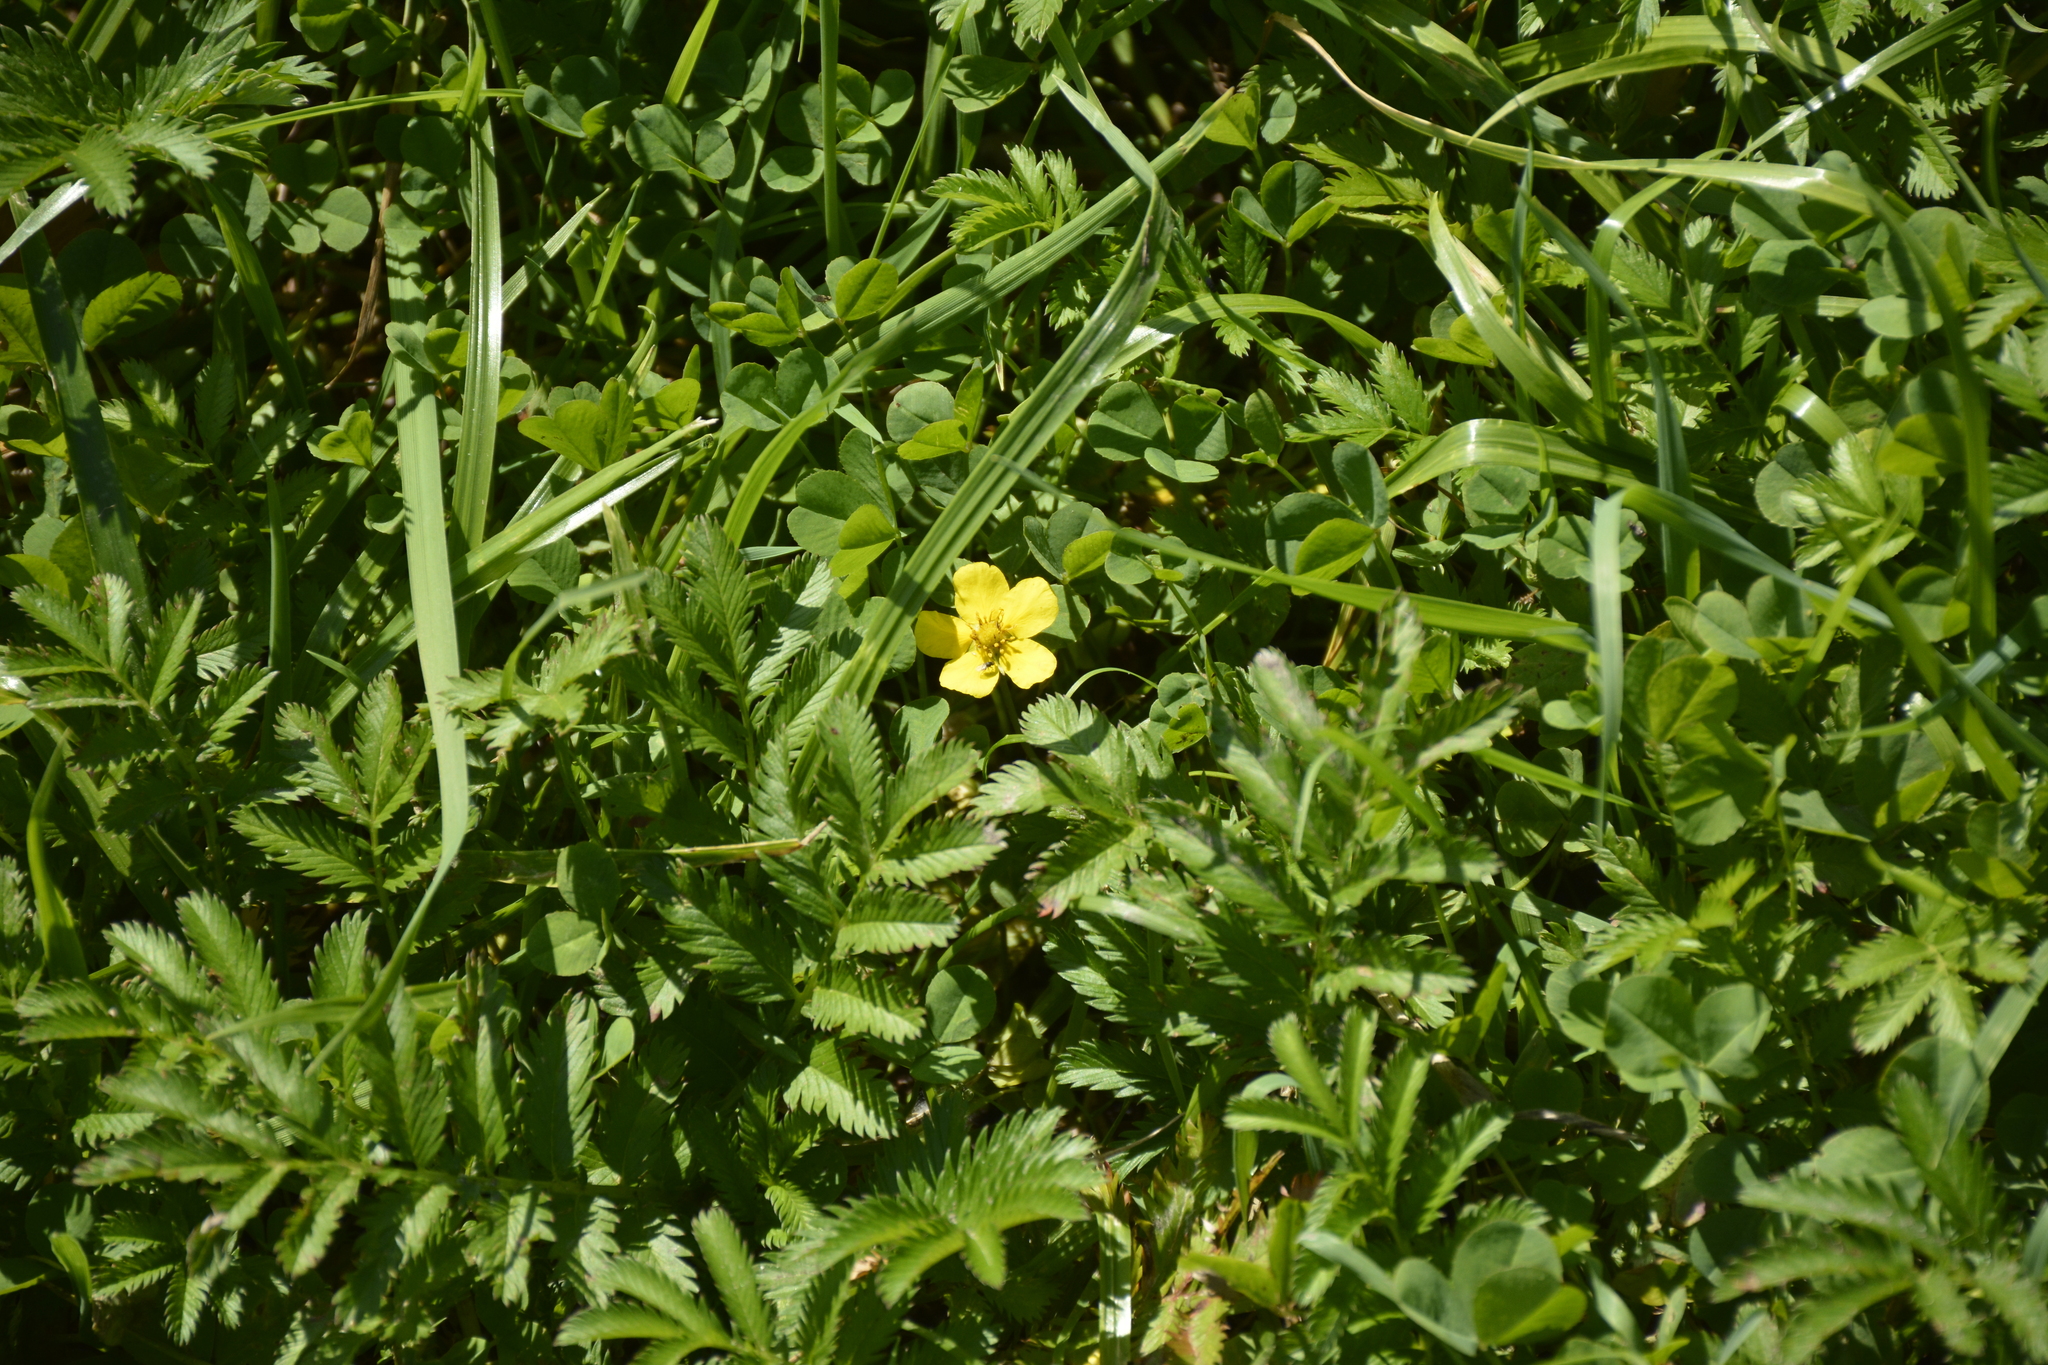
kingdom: Plantae
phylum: Tracheophyta
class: Magnoliopsida
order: Rosales
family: Rosaceae
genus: Argentina
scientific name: Argentina anserina
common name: Common silverweed
